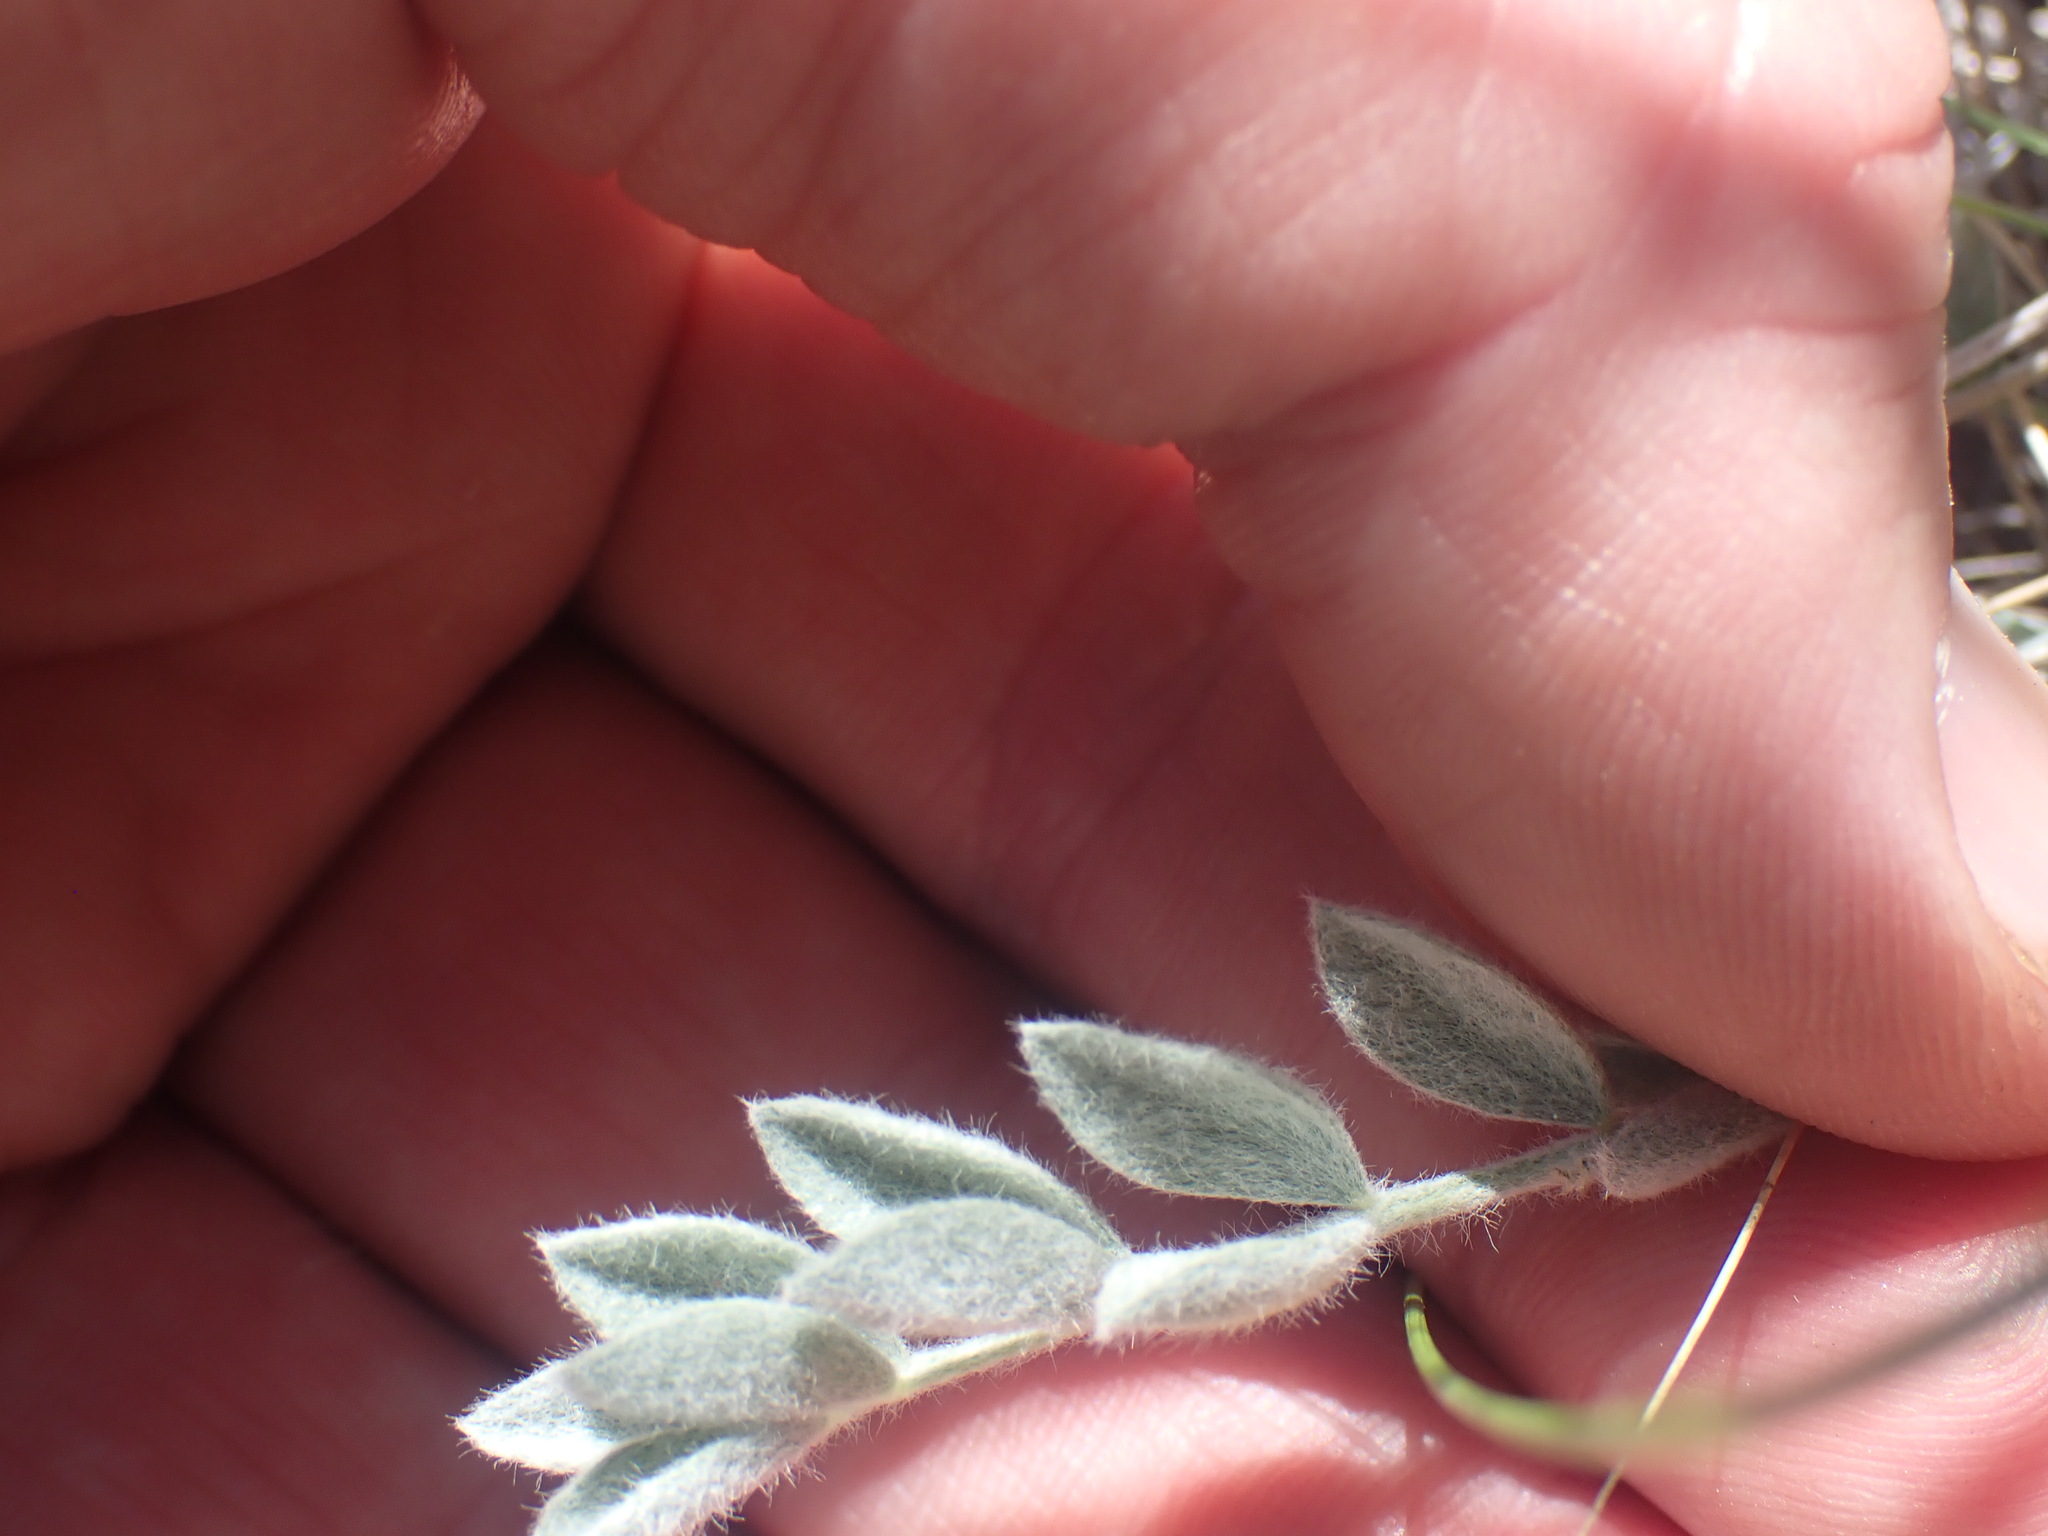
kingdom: Plantae
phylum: Tracheophyta
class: Magnoliopsida
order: Fabales
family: Fabaceae
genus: Astragalus
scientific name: Astragalus purshii
